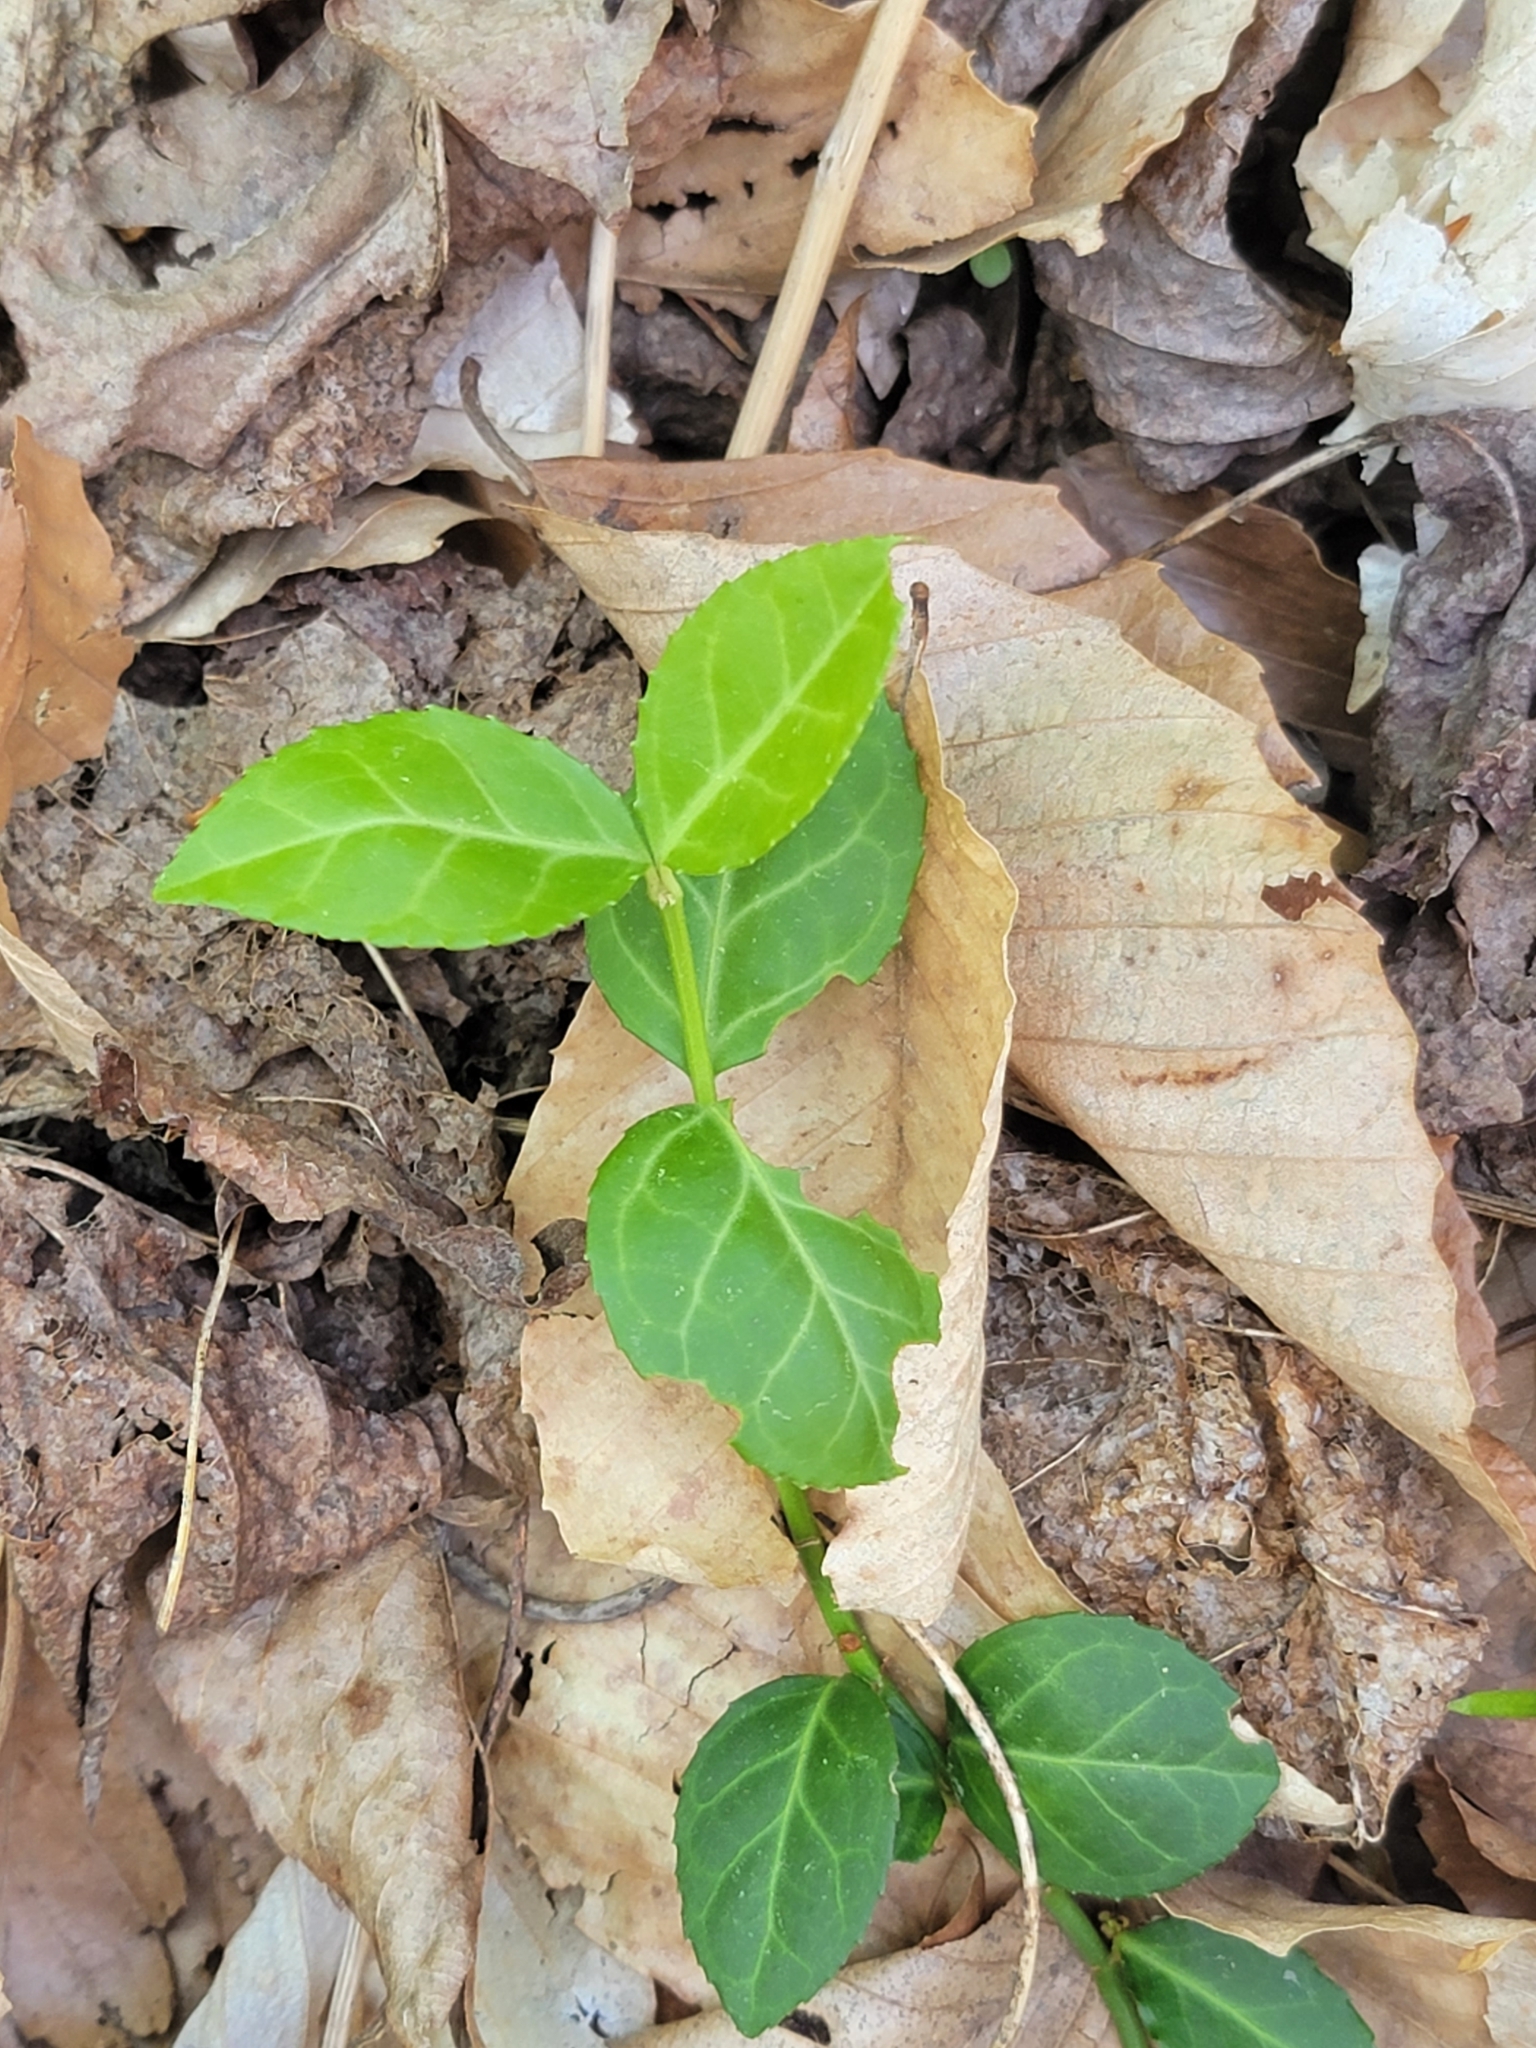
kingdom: Plantae
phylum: Tracheophyta
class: Magnoliopsida
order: Celastrales
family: Celastraceae
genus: Euonymus
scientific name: Euonymus fortunei
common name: Climbing euonymus
